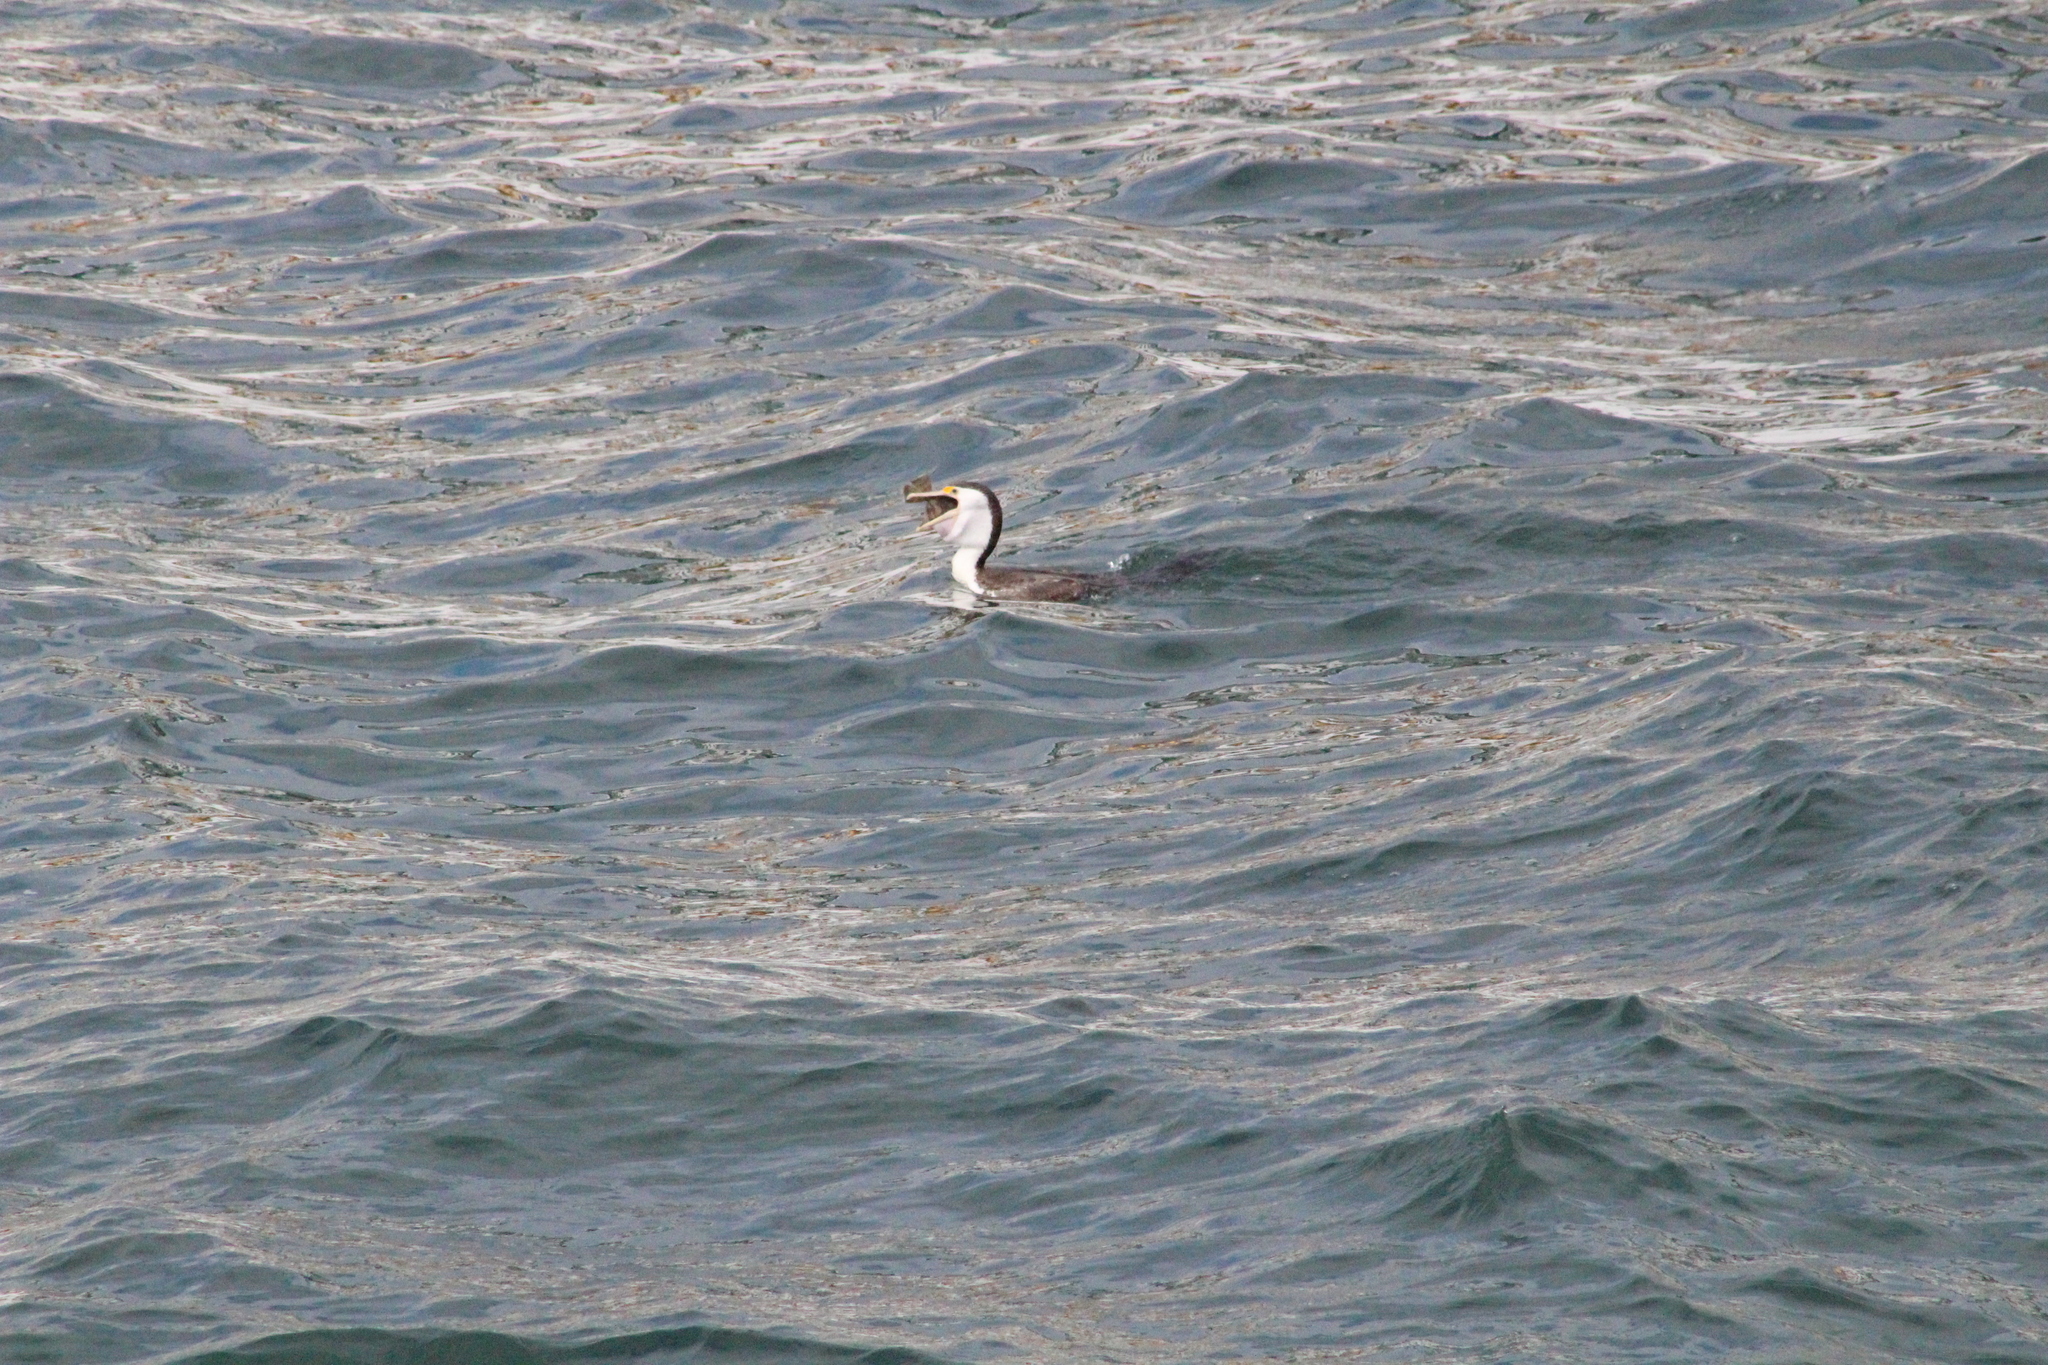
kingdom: Animalia
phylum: Chordata
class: Aves
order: Suliformes
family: Phalacrocoracidae
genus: Phalacrocorax
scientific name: Phalacrocorax varius
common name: Pied cormorant
